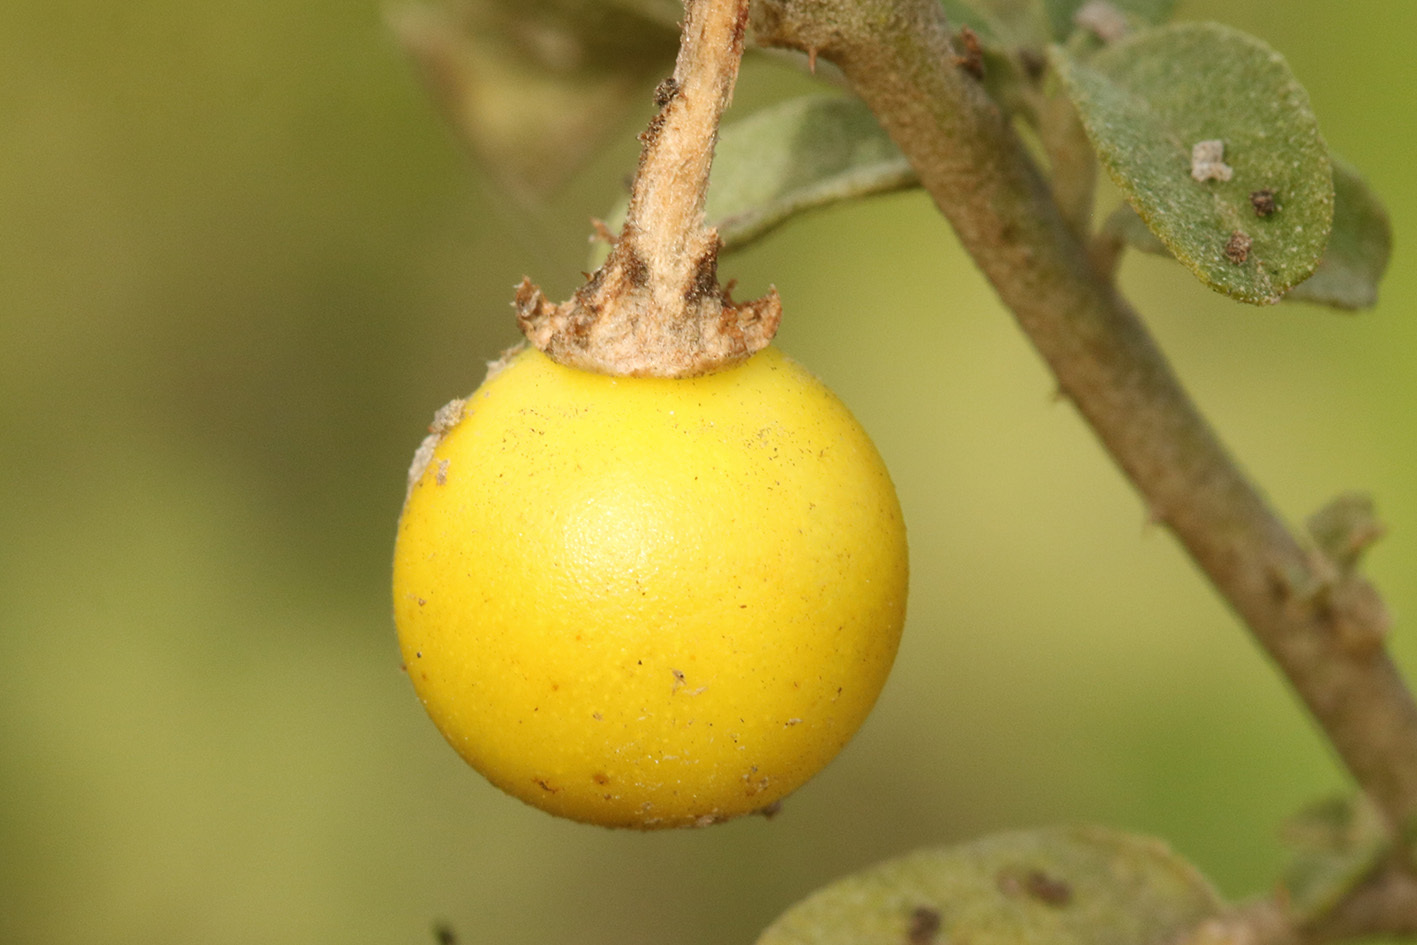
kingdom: Plantae
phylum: Tracheophyta
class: Magnoliopsida
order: Solanales
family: Solanaceae
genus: Solanum
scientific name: Solanum elaeagnifolium
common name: Silverleaf nightshade
